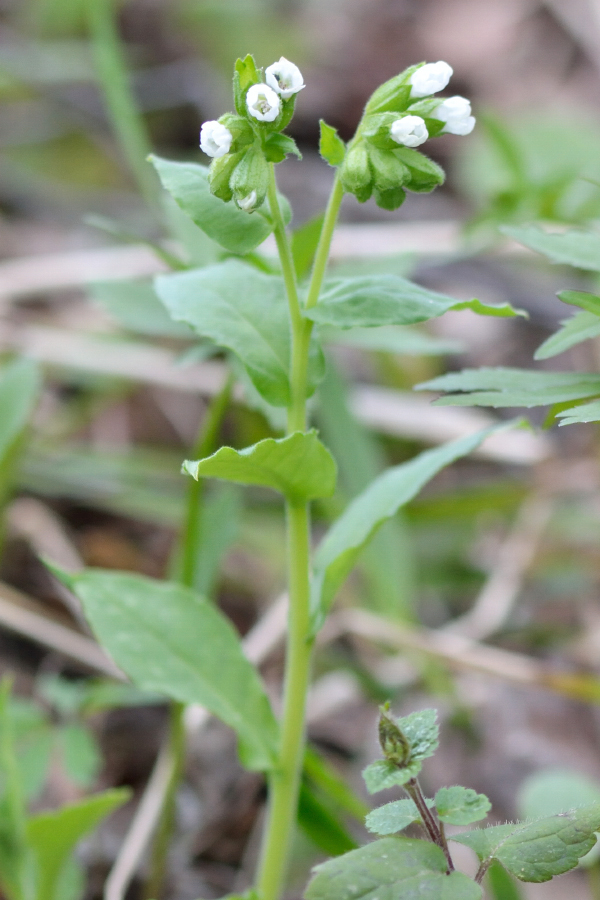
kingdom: Plantae
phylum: Tracheophyta
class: Magnoliopsida
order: Boraginales
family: Boraginaceae
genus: Pulmonaria
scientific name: Pulmonaria obscura
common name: Suffolk lungwort
